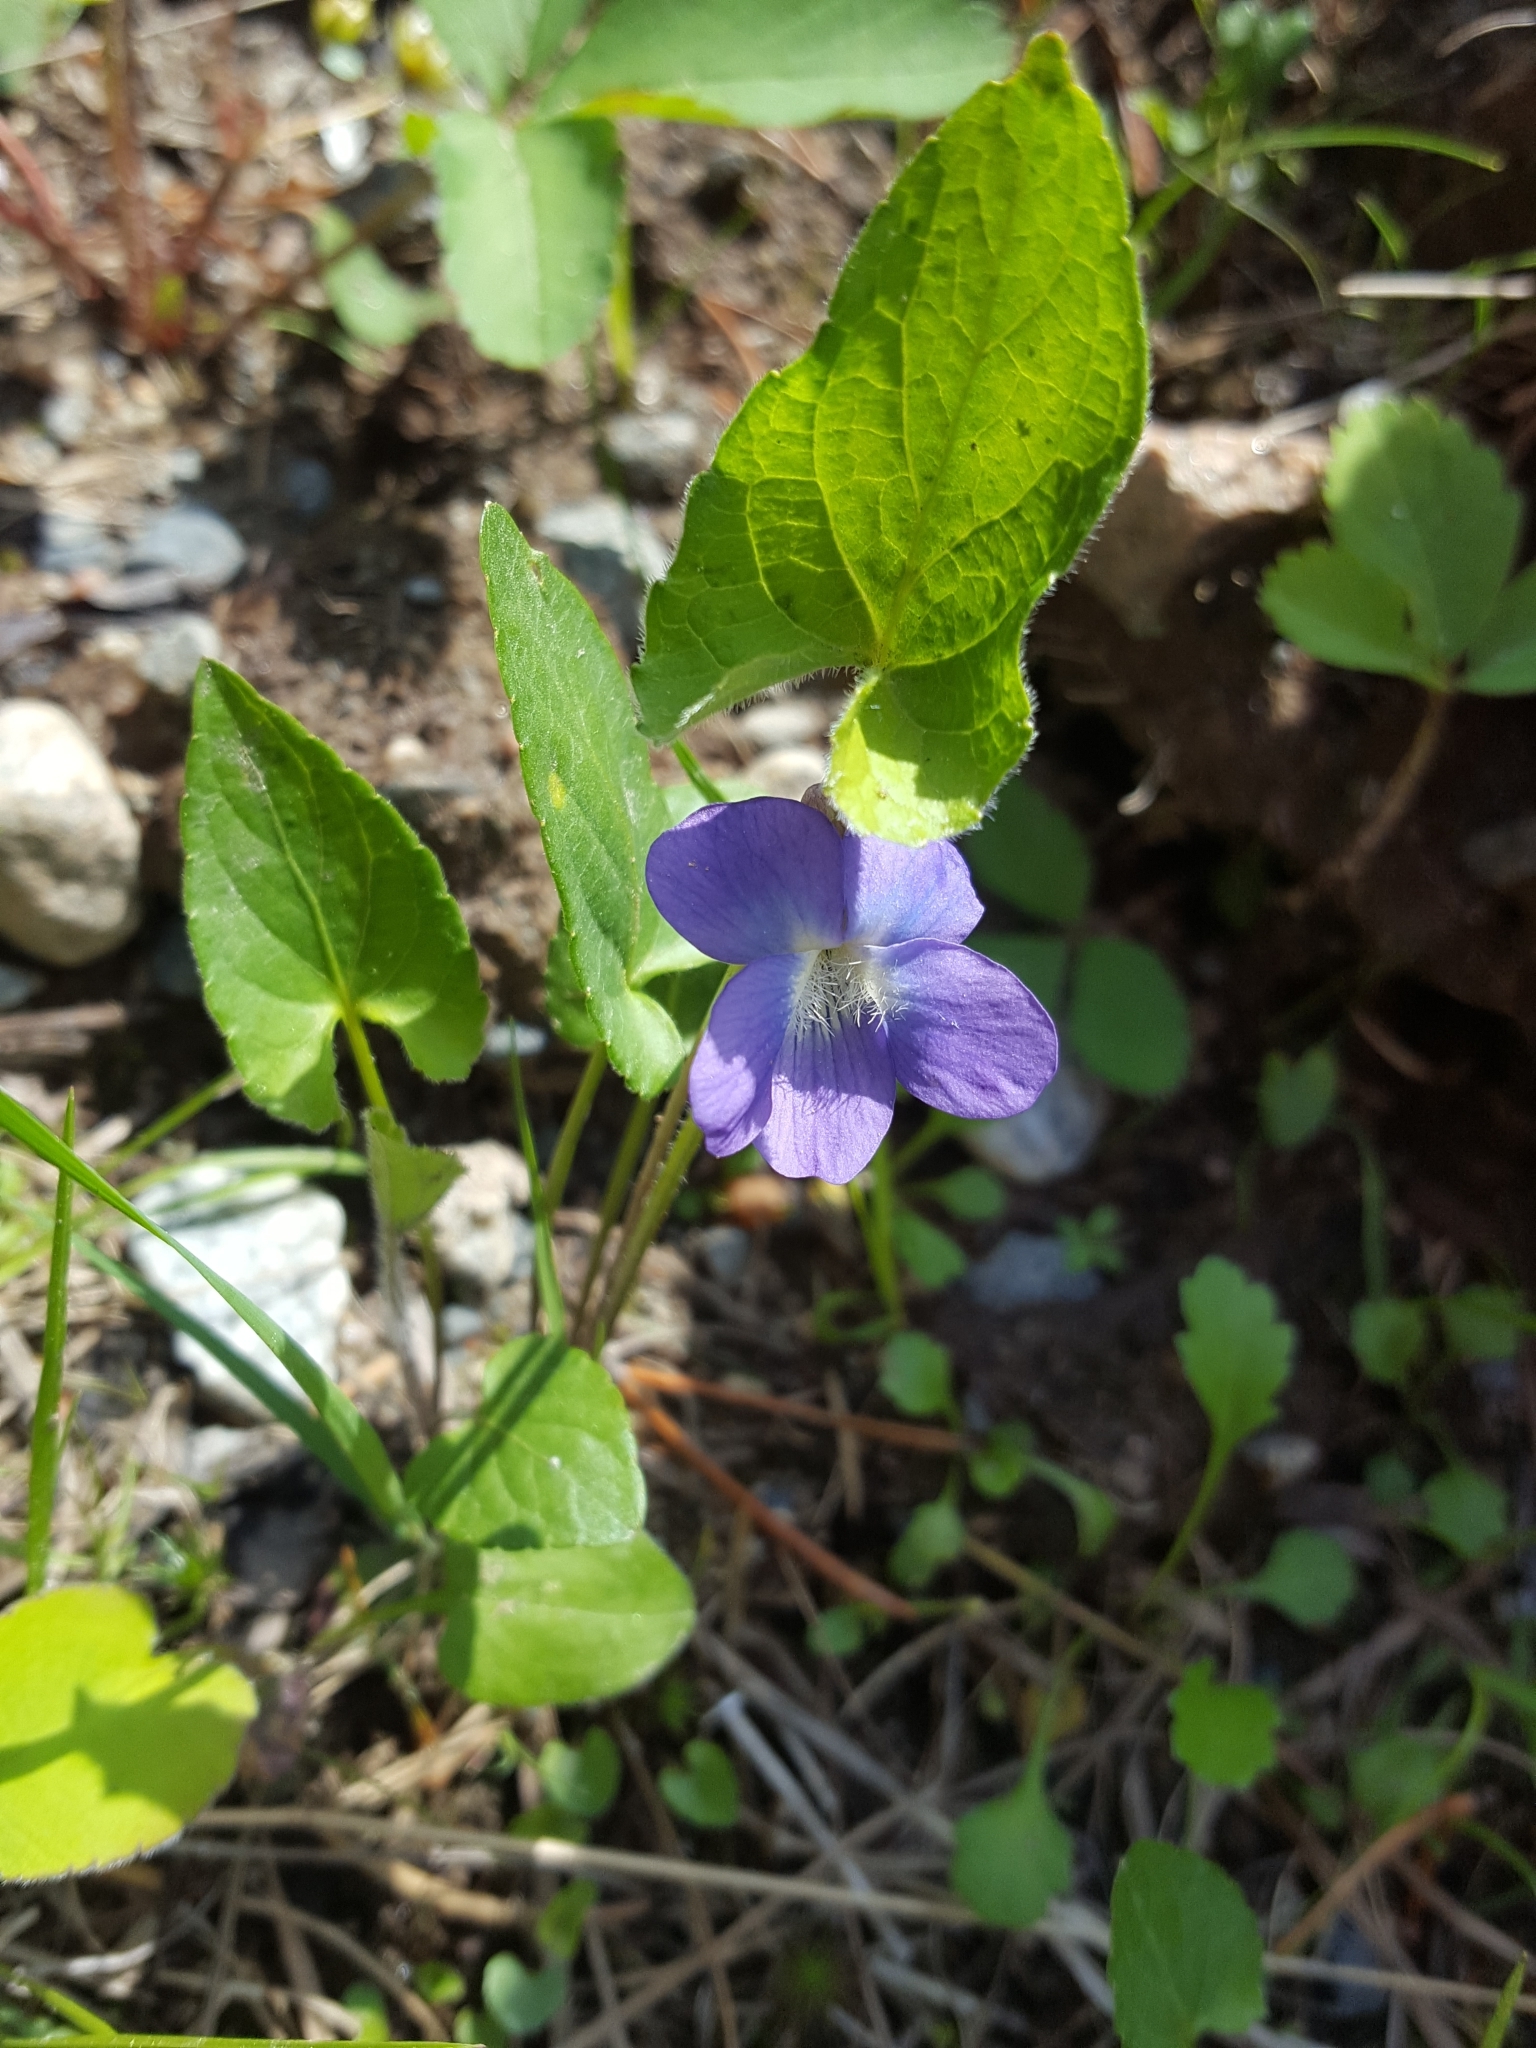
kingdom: Plantae
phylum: Tracheophyta
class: Magnoliopsida
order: Malpighiales
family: Violaceae
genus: Viola
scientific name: Viola novae-angliae
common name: New england blue violet
